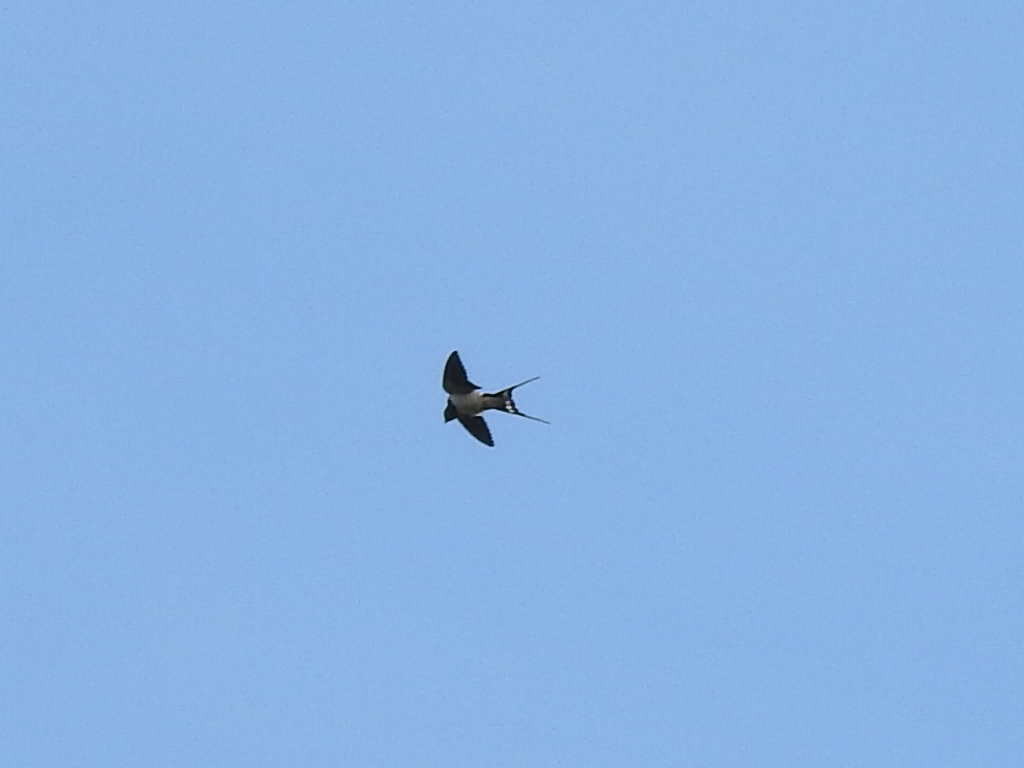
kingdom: Animalia
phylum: Chordata
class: Aves
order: Passeriformes
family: Hirundinidae
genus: Hirundo
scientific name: Hirundo rustica
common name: Barn swallow
